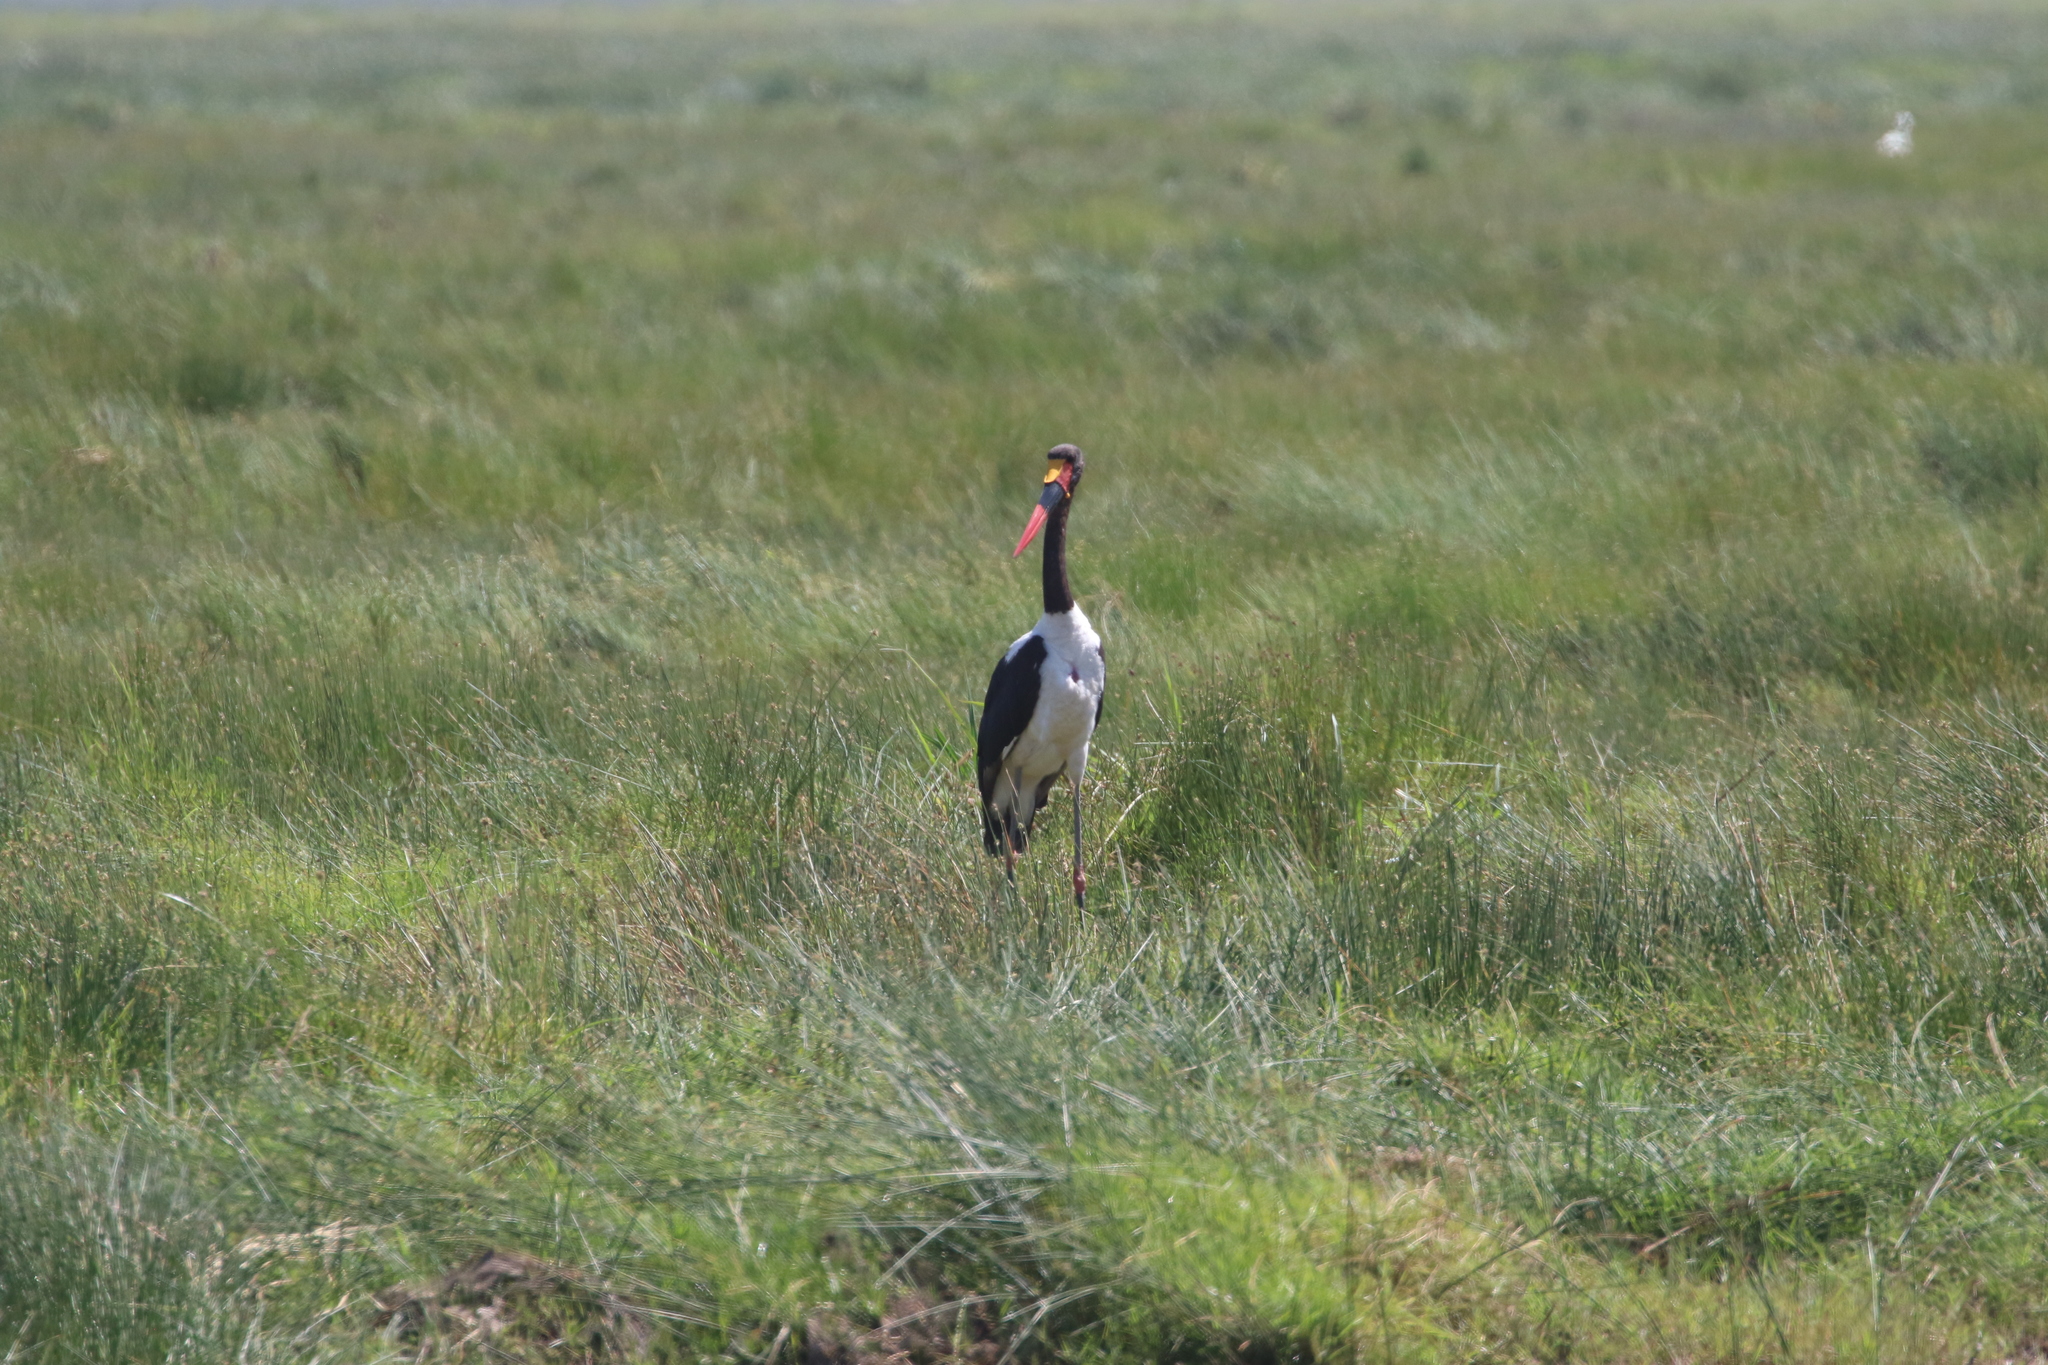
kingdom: Animalia
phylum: Chordata
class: Aves
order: Ciconiiformes
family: Ciconiidae
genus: Ephippiorhynchus
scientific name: Ephippiorhynchus senegalensis
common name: Saddle-billed stork
